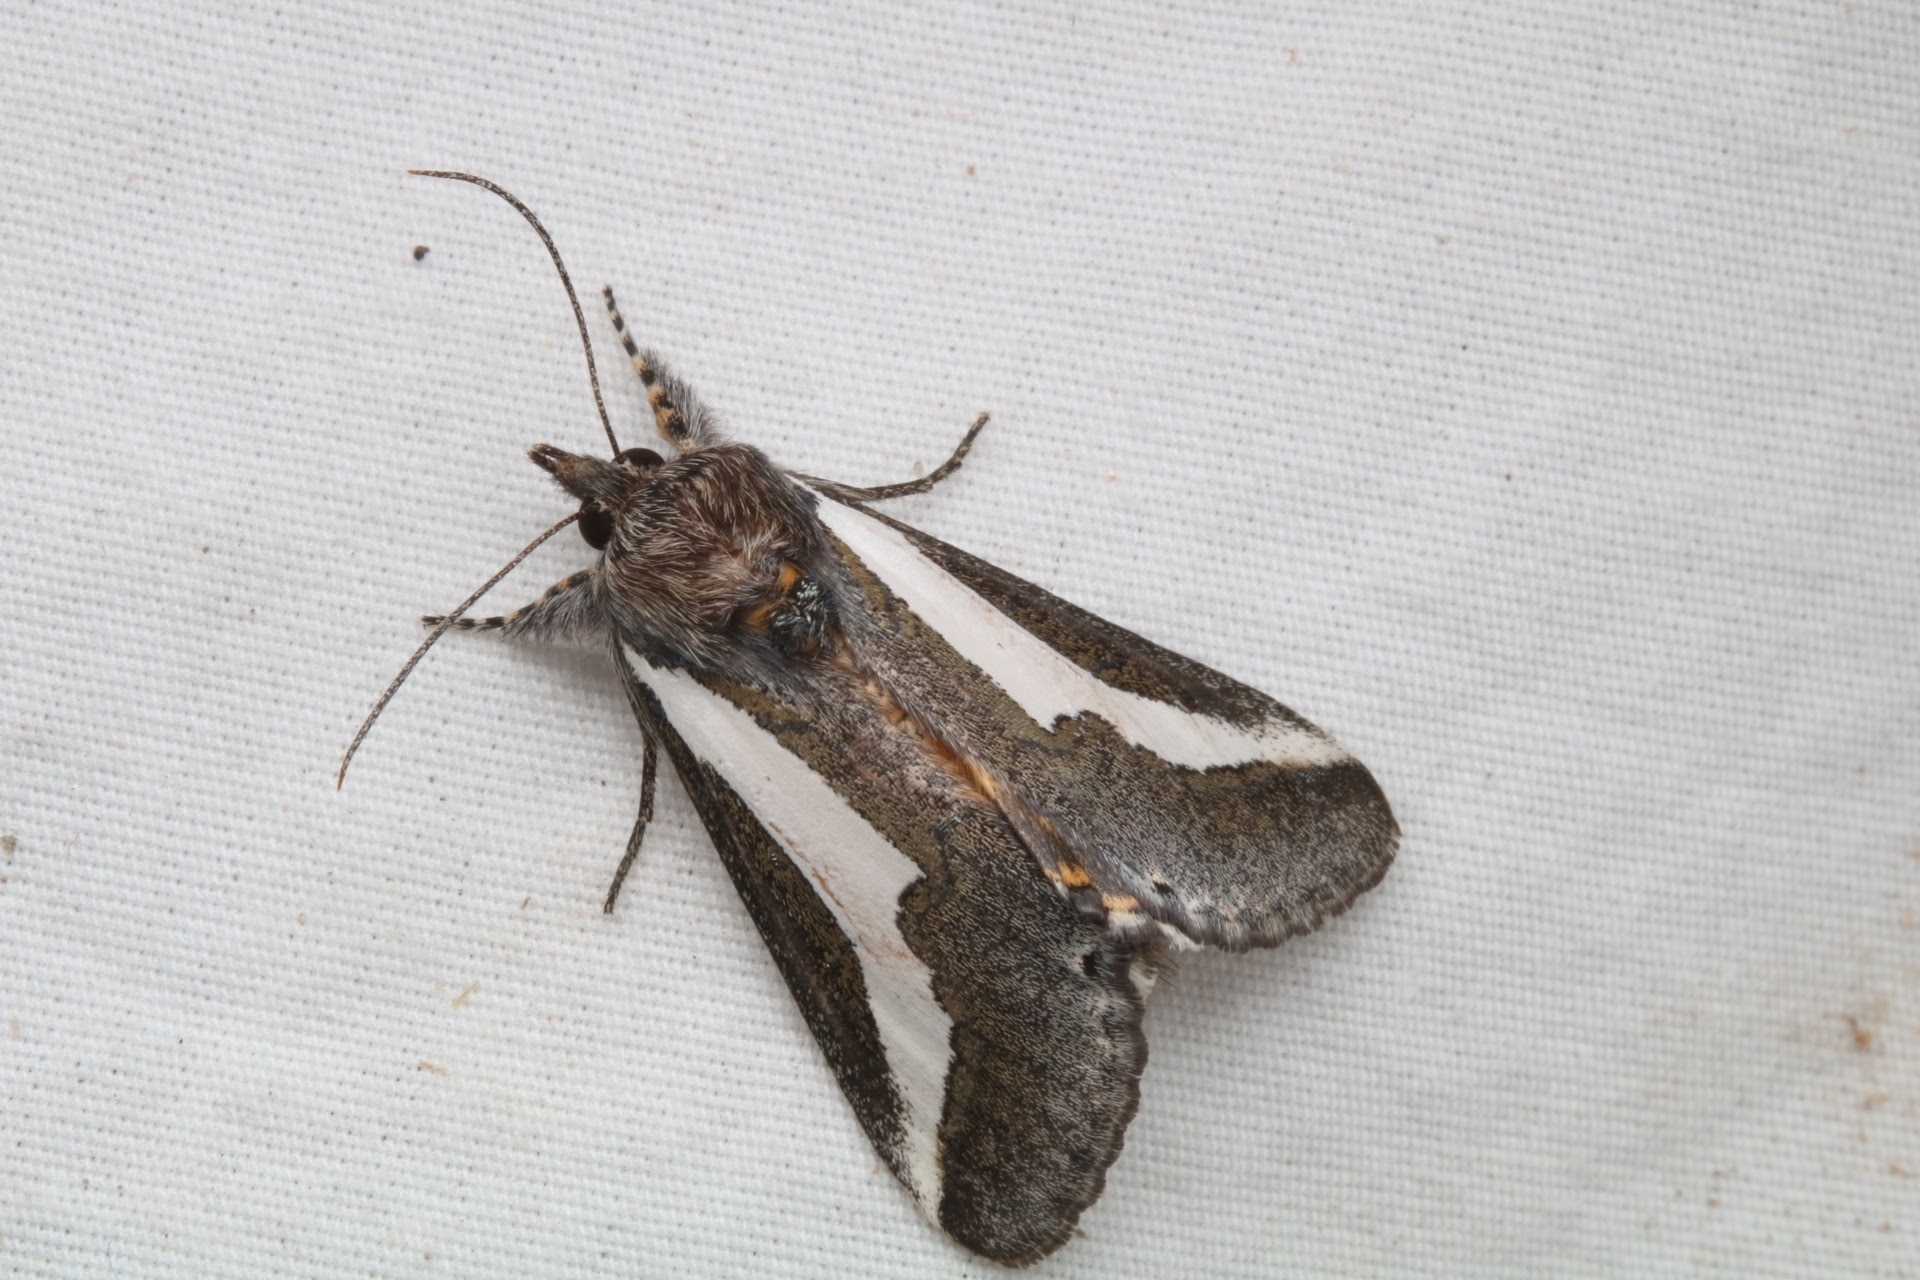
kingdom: Animalia
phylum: Arthropoda
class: Insecta
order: Lepidoptera
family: Noctuidae
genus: Euscirrhopterus
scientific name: Euscirrhopterus cosyra
